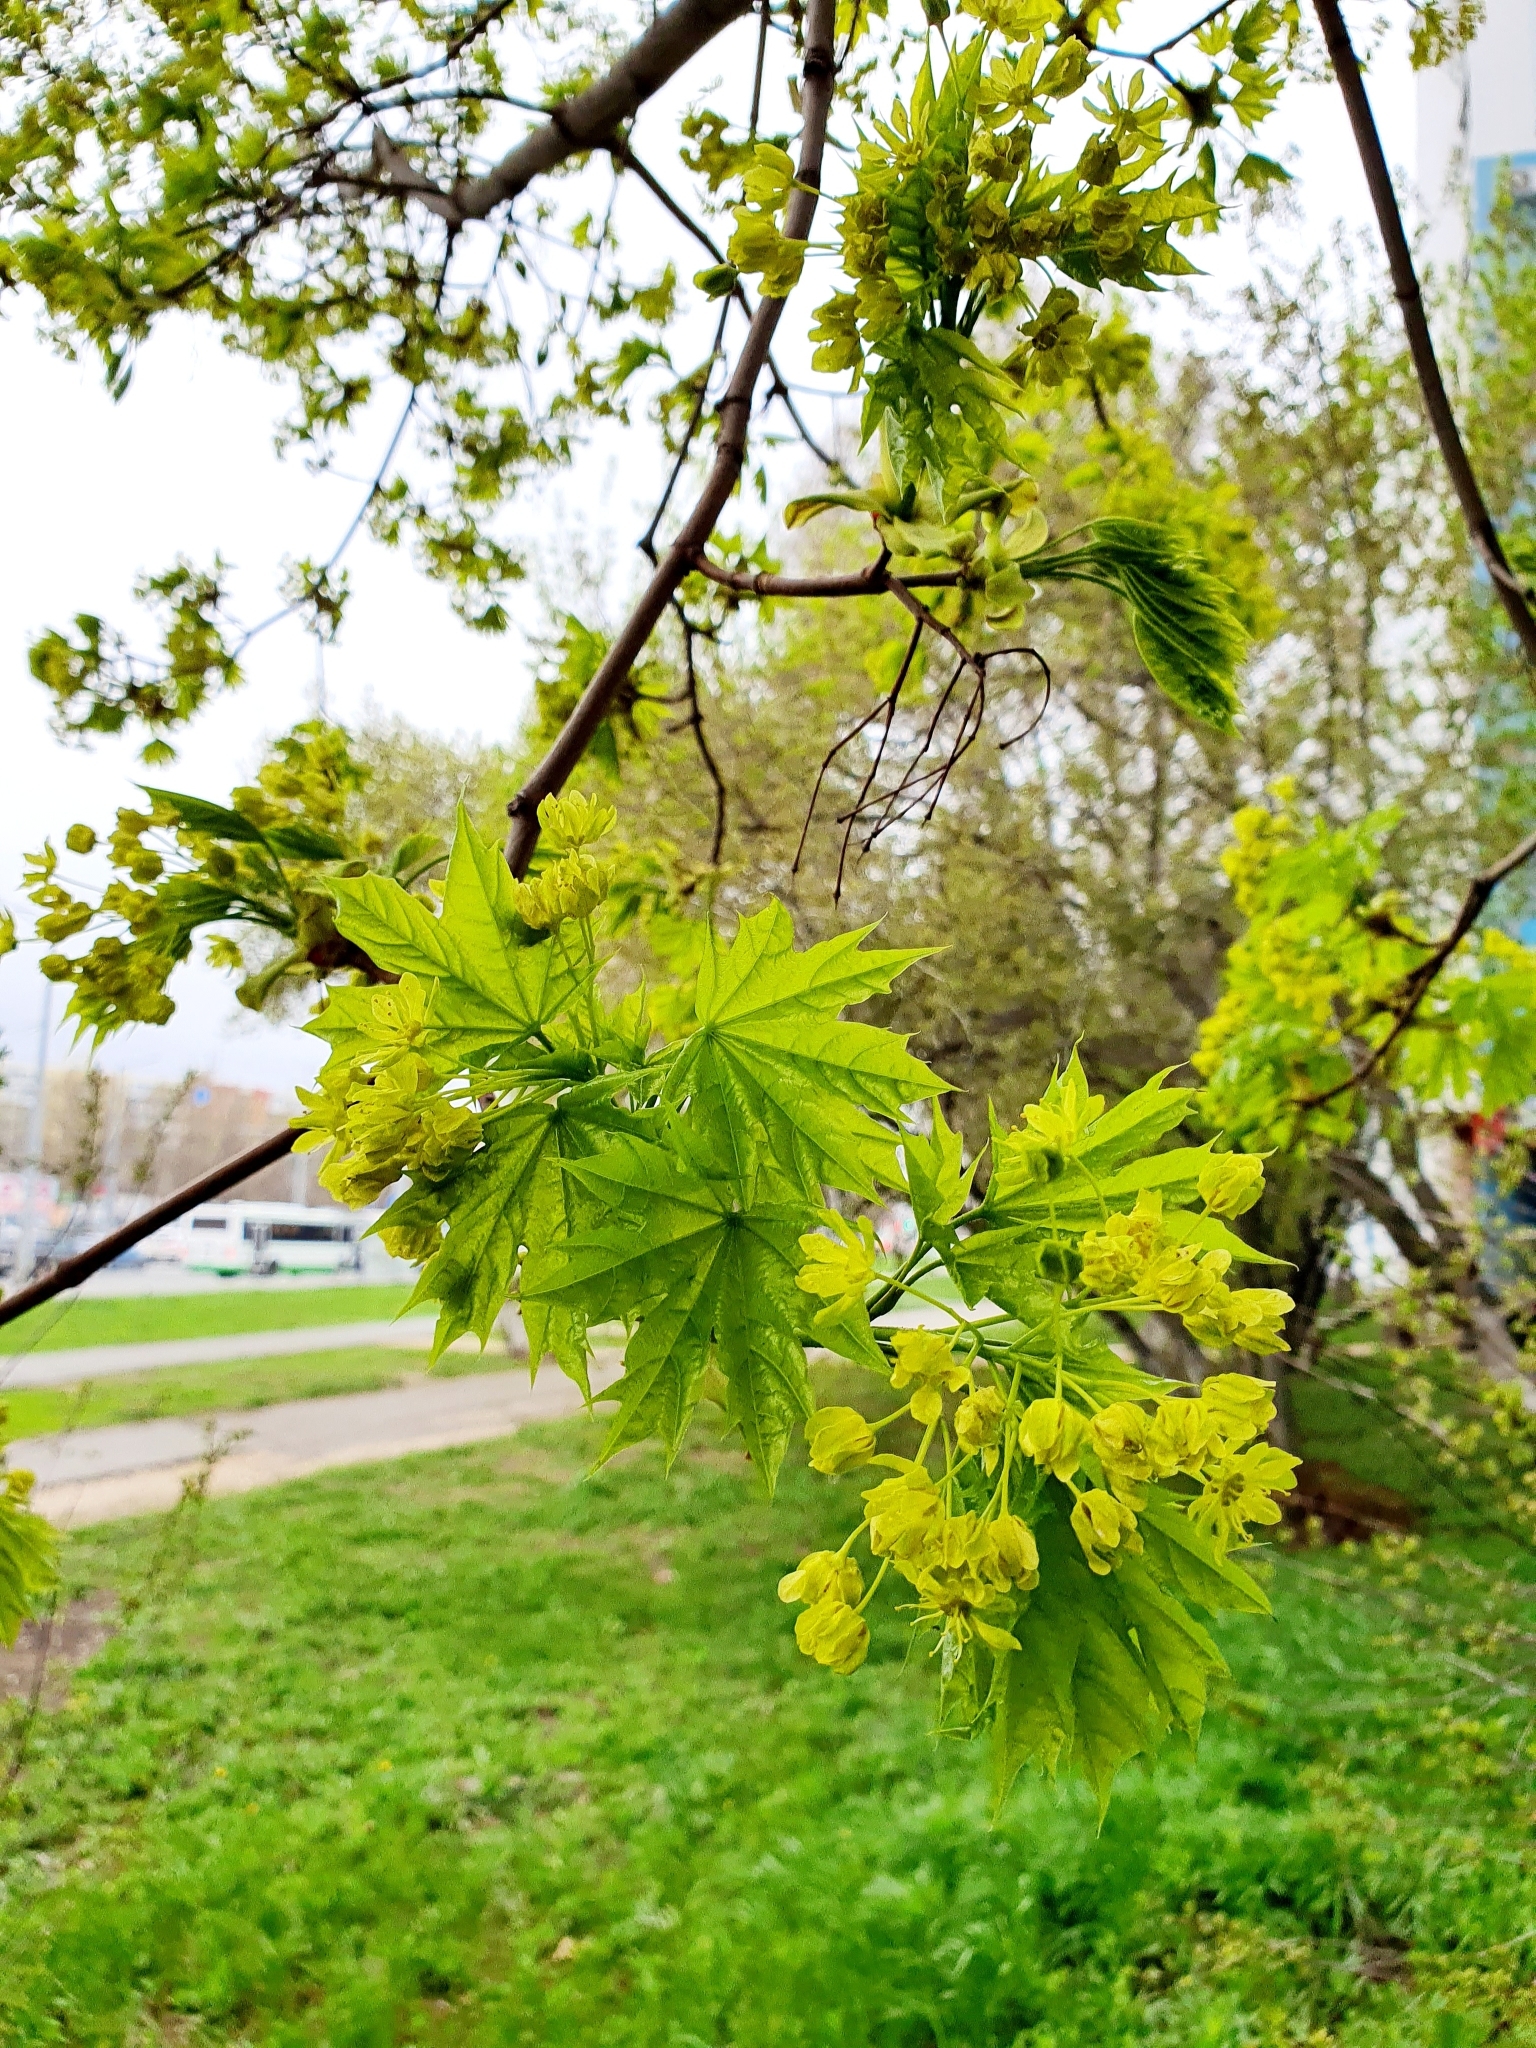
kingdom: Plantae
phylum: Tracheophyta
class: Magnoliopsida
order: Sapindales
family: Sapindaceae
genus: Acer
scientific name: Acer platanoides
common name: Norway maple
